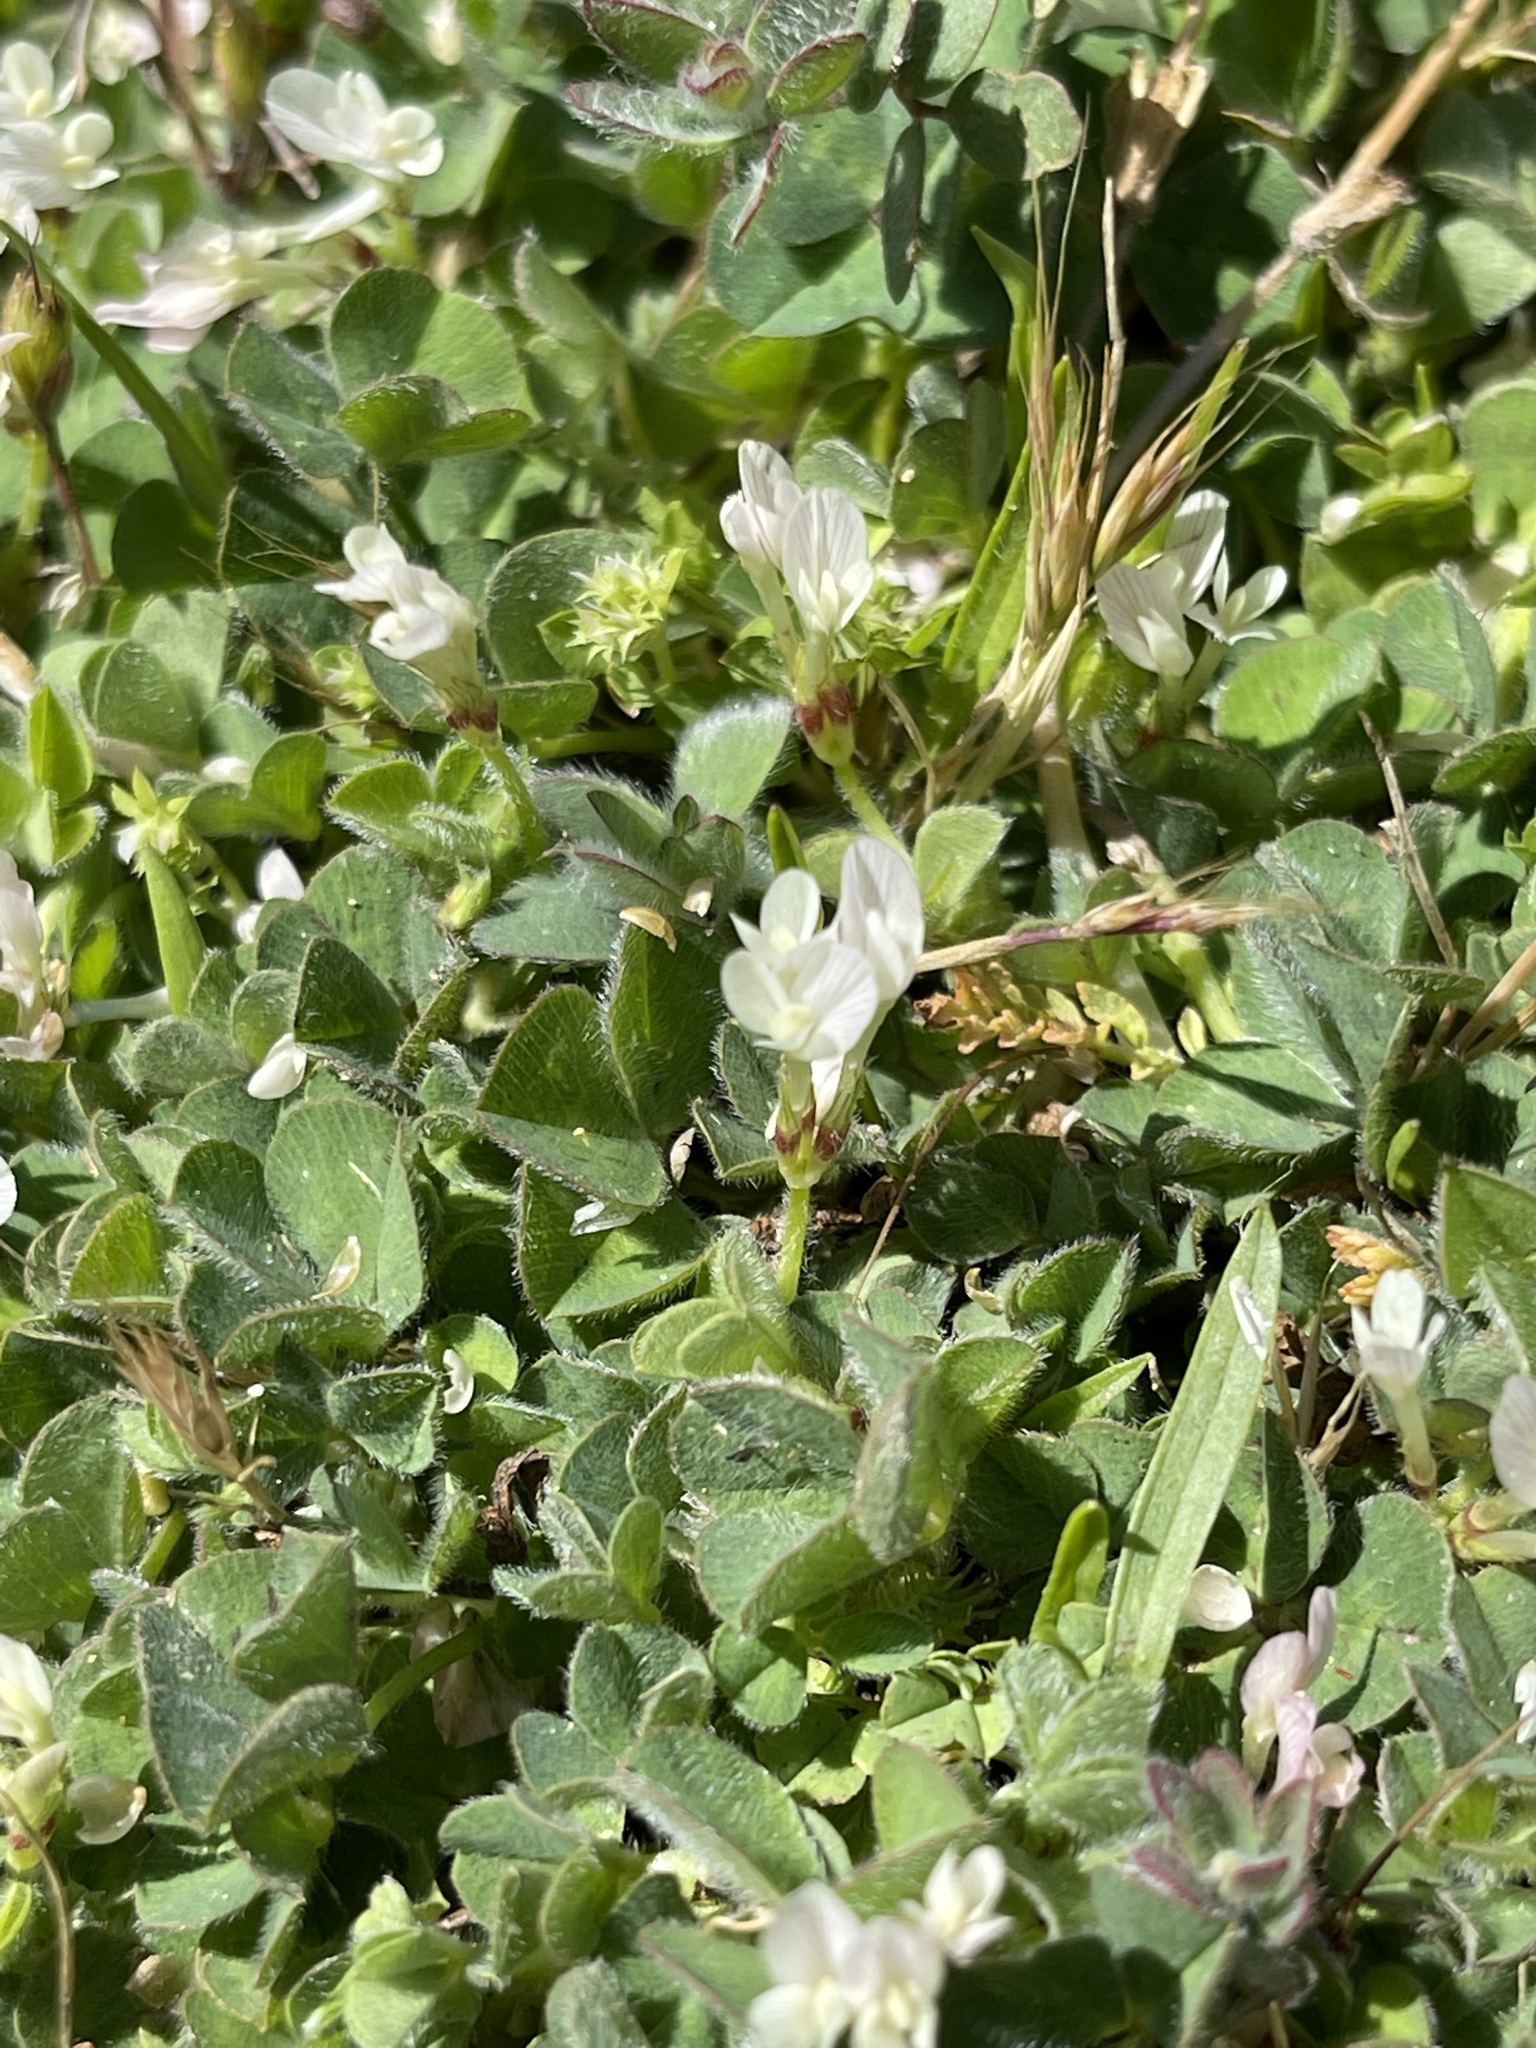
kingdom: Plantae
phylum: Tracheophyta
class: Magnoliopsida
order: Fabales
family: Fabaceae
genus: Trifolium
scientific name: Trifolium subterraneum
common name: Subterranean clover
